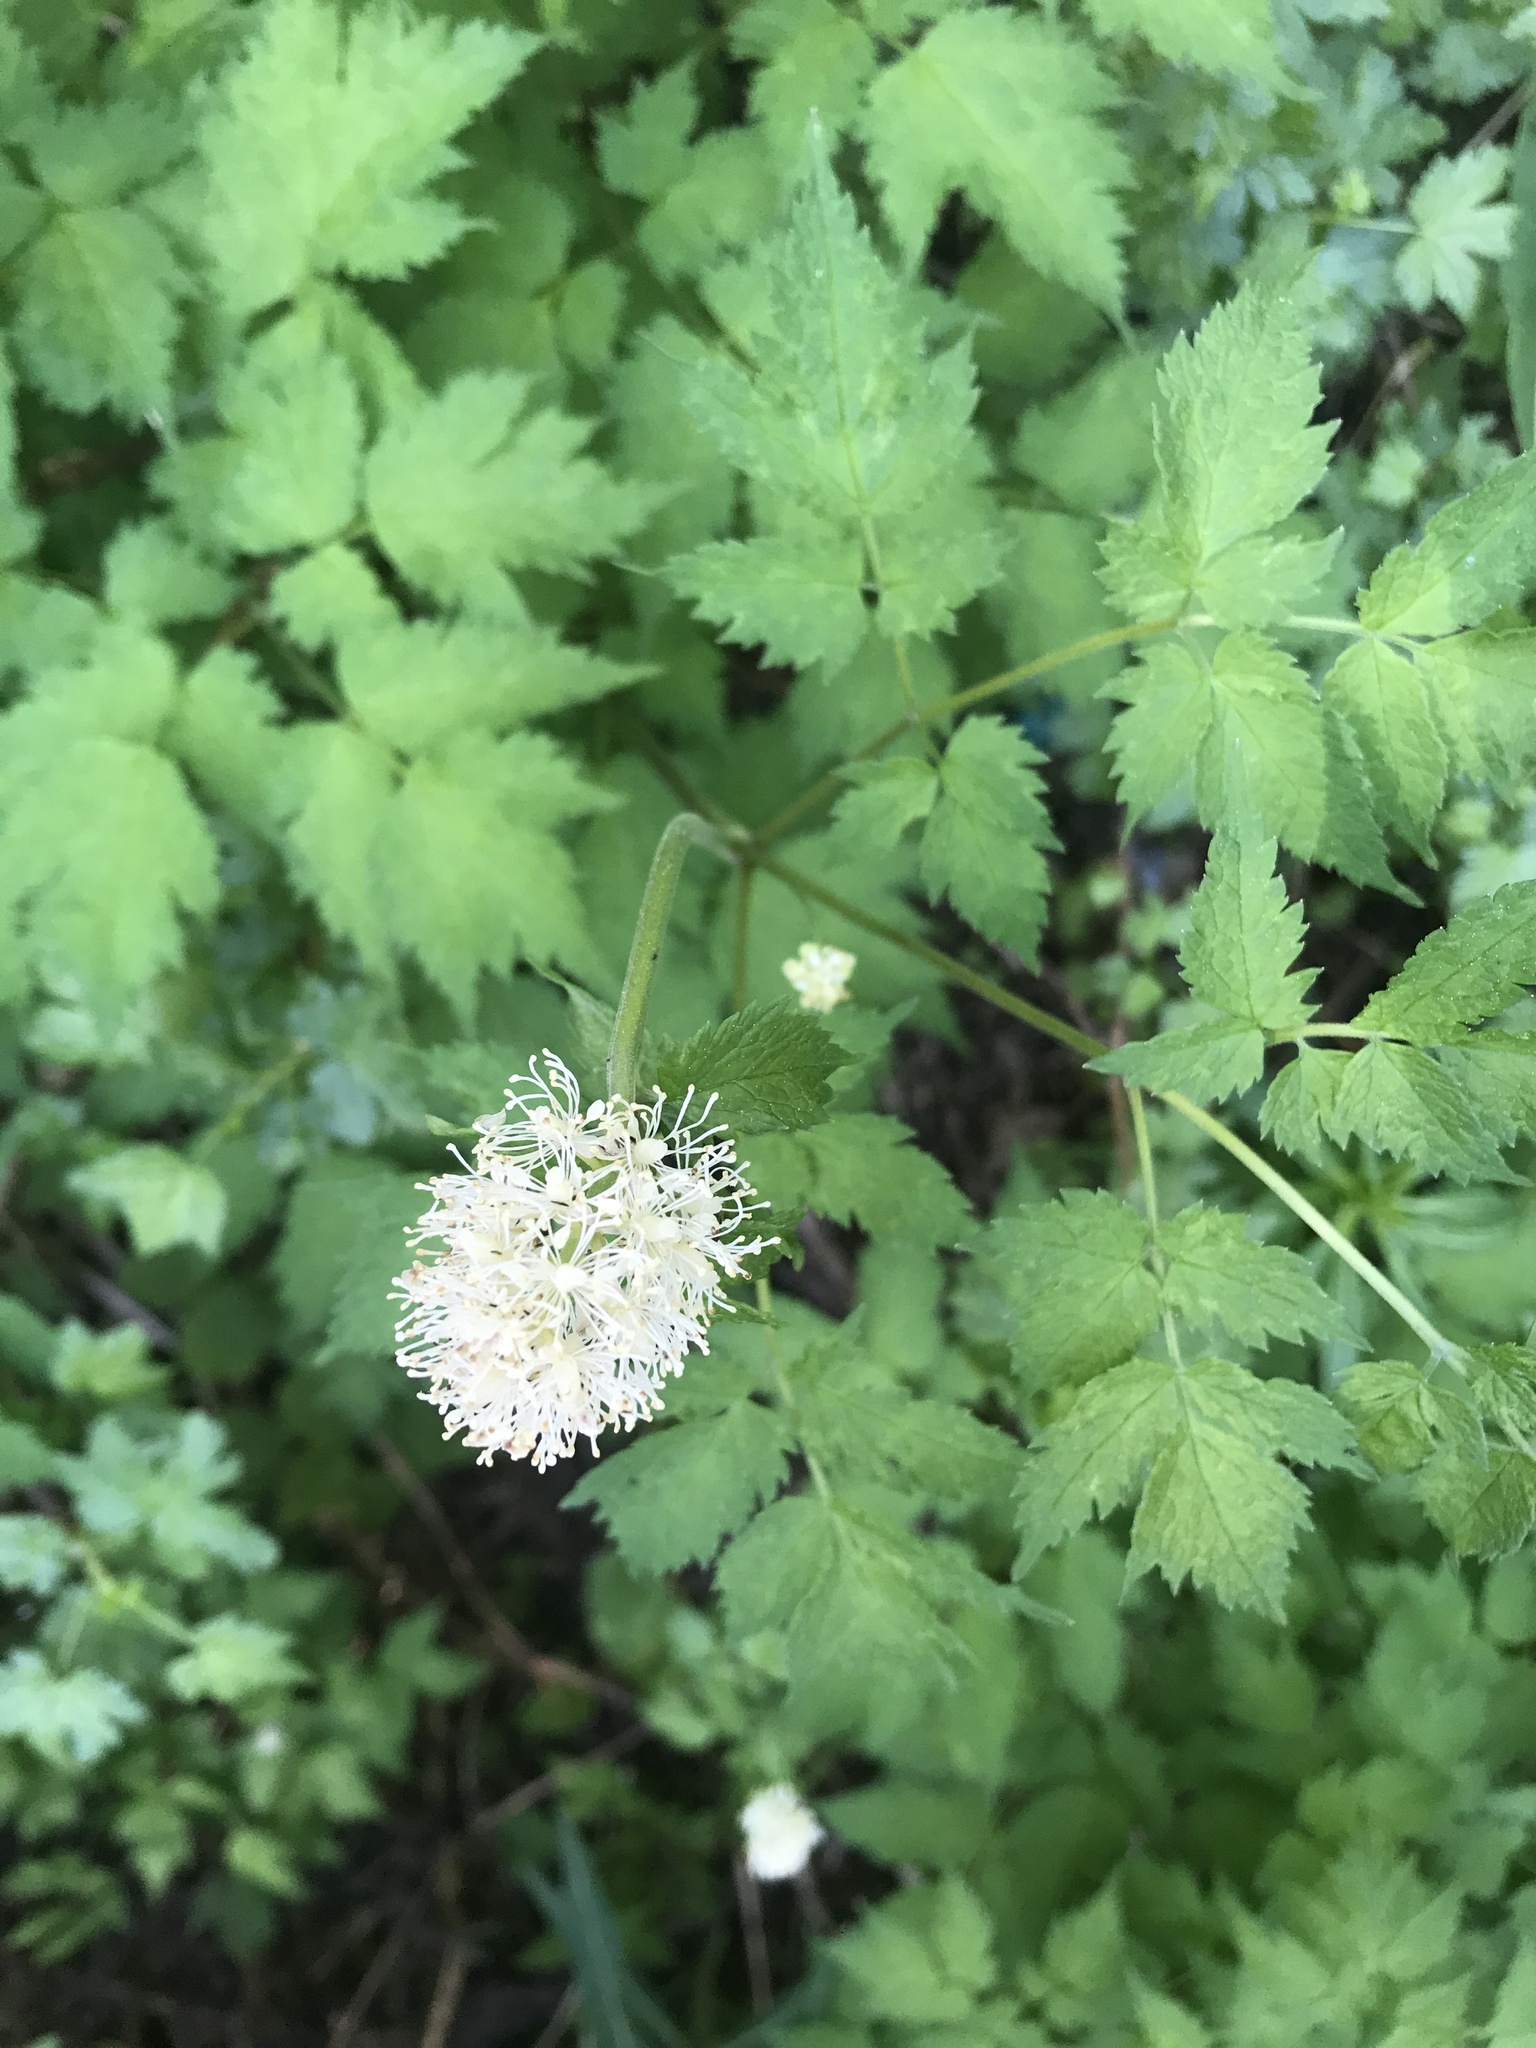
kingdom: Plantae
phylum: Tracheophyta
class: Magnoliopsida
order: Ranunculales
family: Ranunculaceae
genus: Actaea
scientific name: Actaea rubra
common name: Red baneberry
